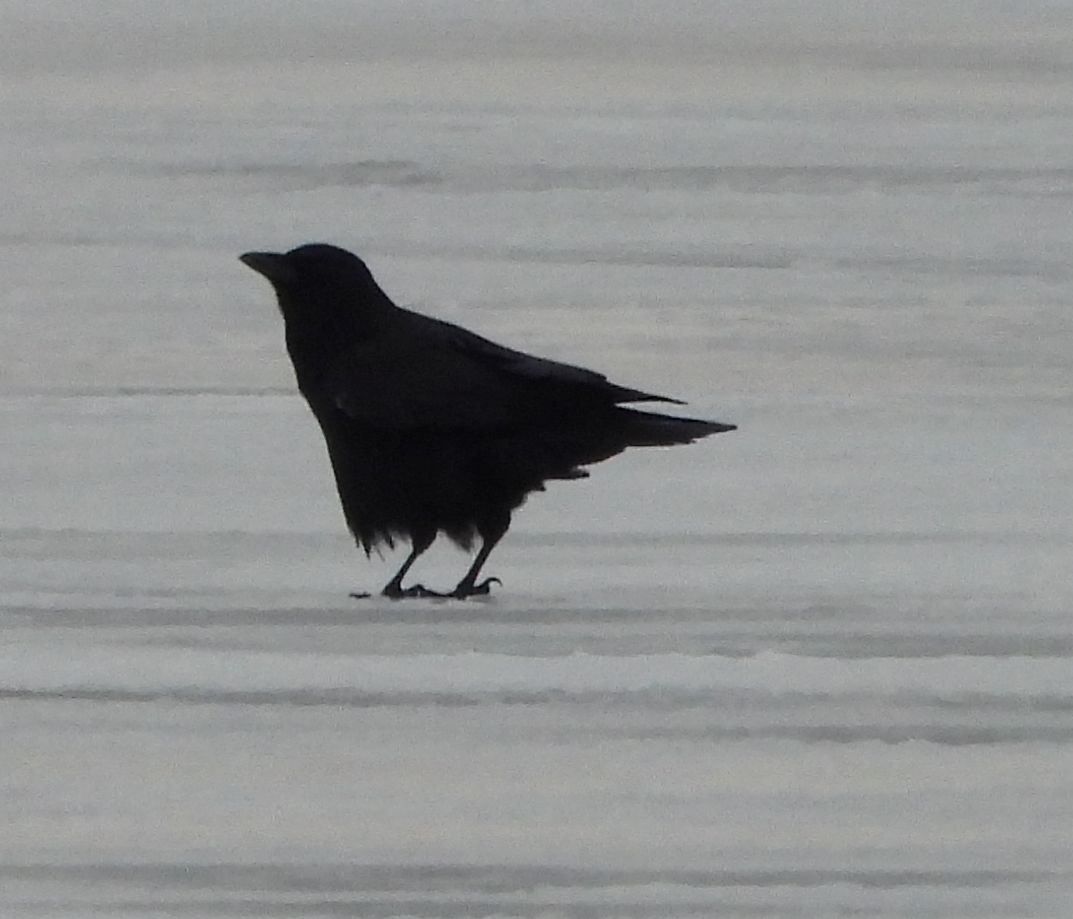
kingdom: Animalia
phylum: Chordata
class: Aves
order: Passeriformes
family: Corvidae
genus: Corvus
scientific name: Corvus brachyrhynchos
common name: American crow
